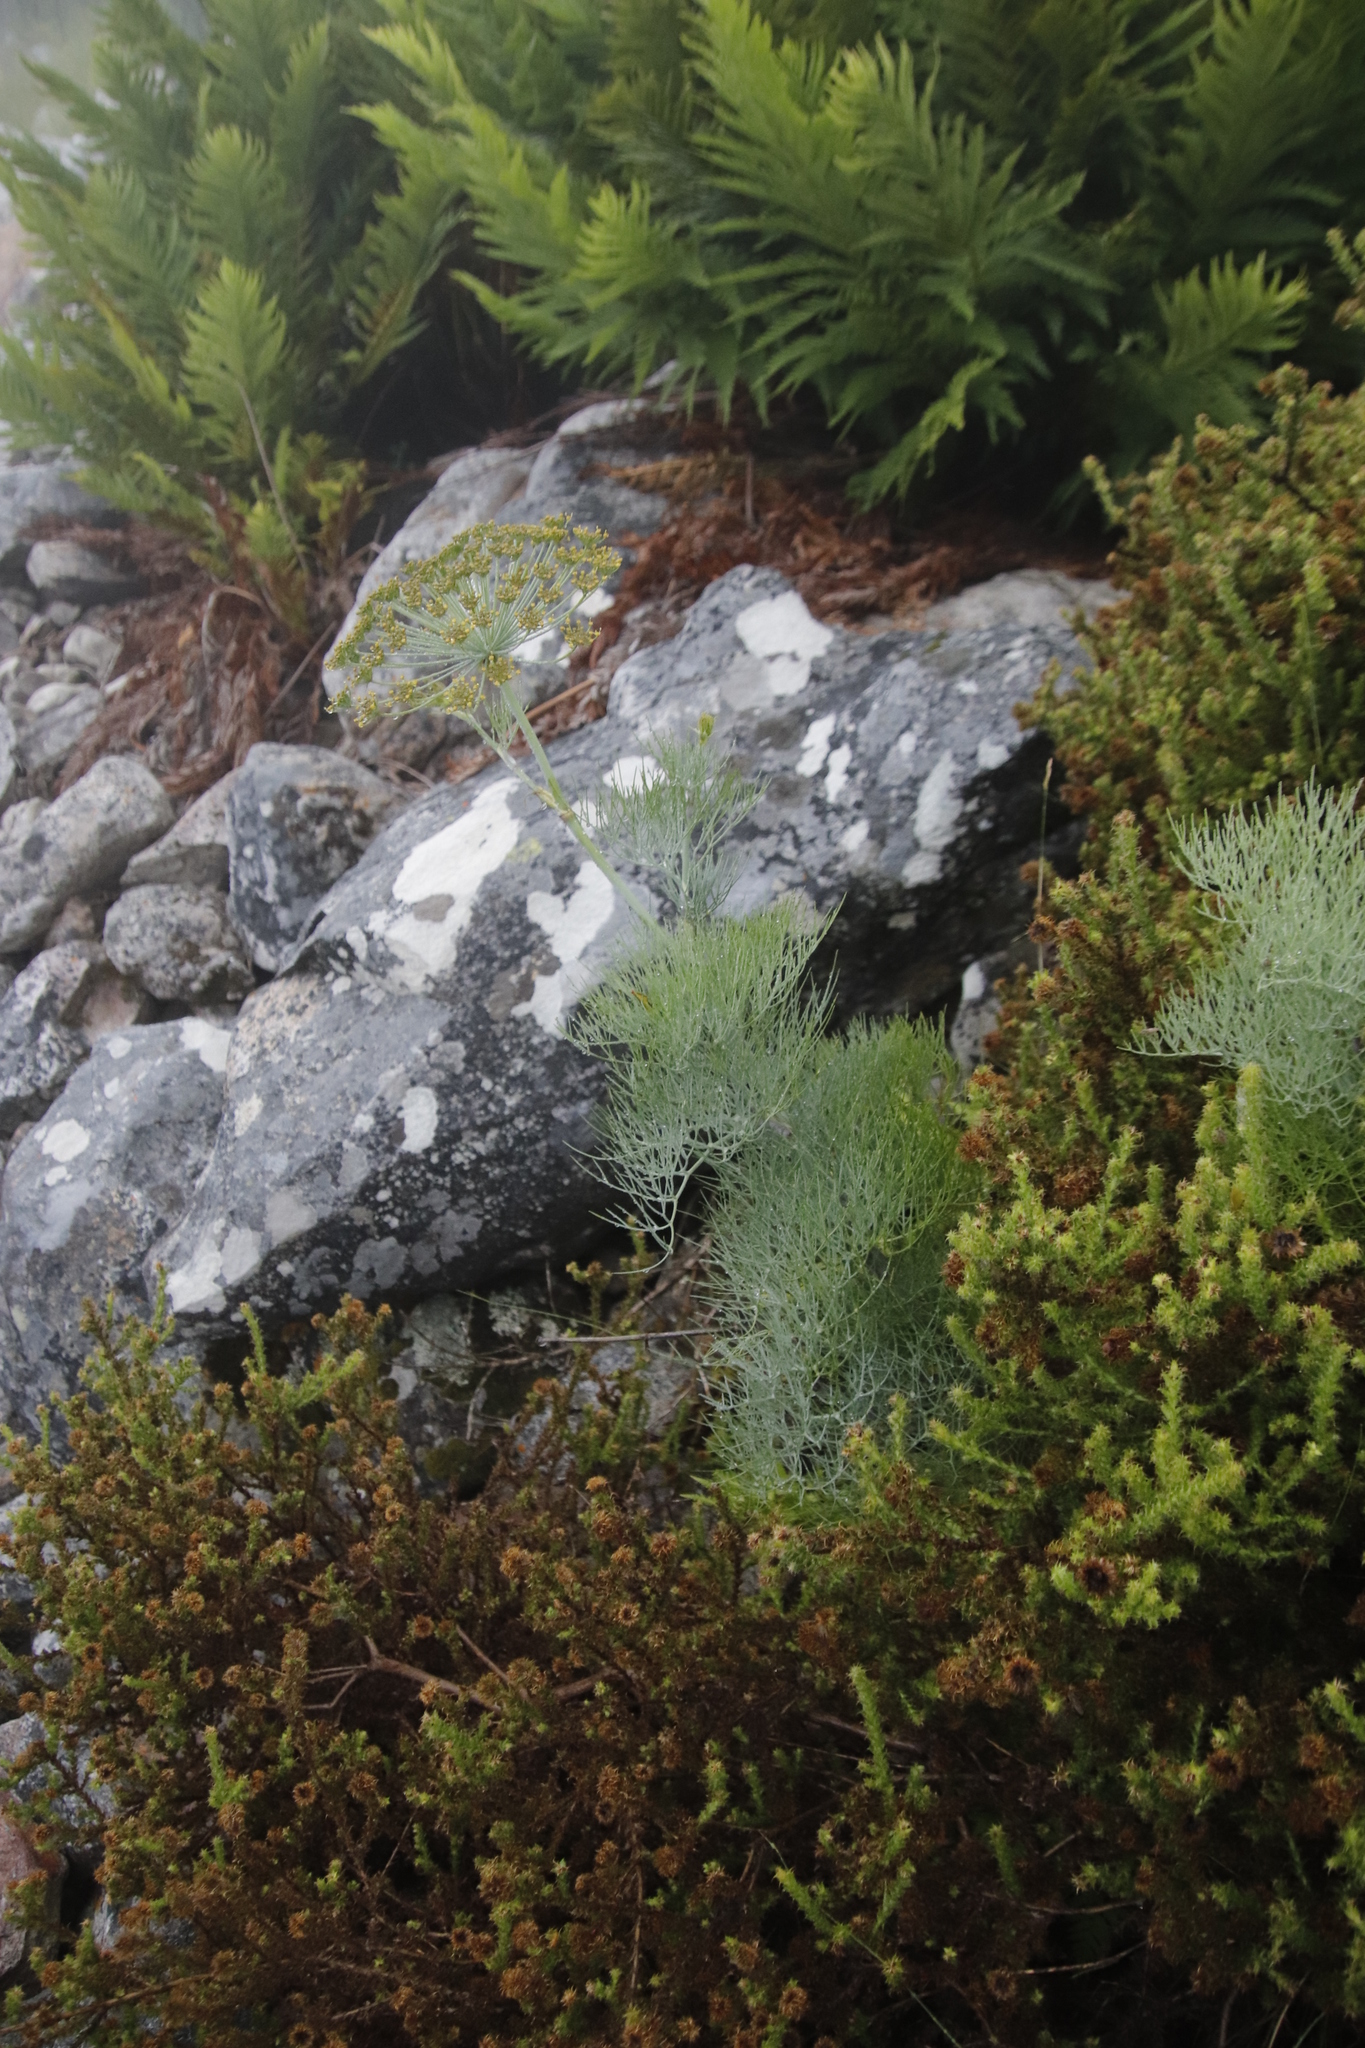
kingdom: Plantae
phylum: Tracheophyta
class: Magnoliopsida
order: Apiales
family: Apiaceae
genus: Notobubon
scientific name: Notobubon capense
